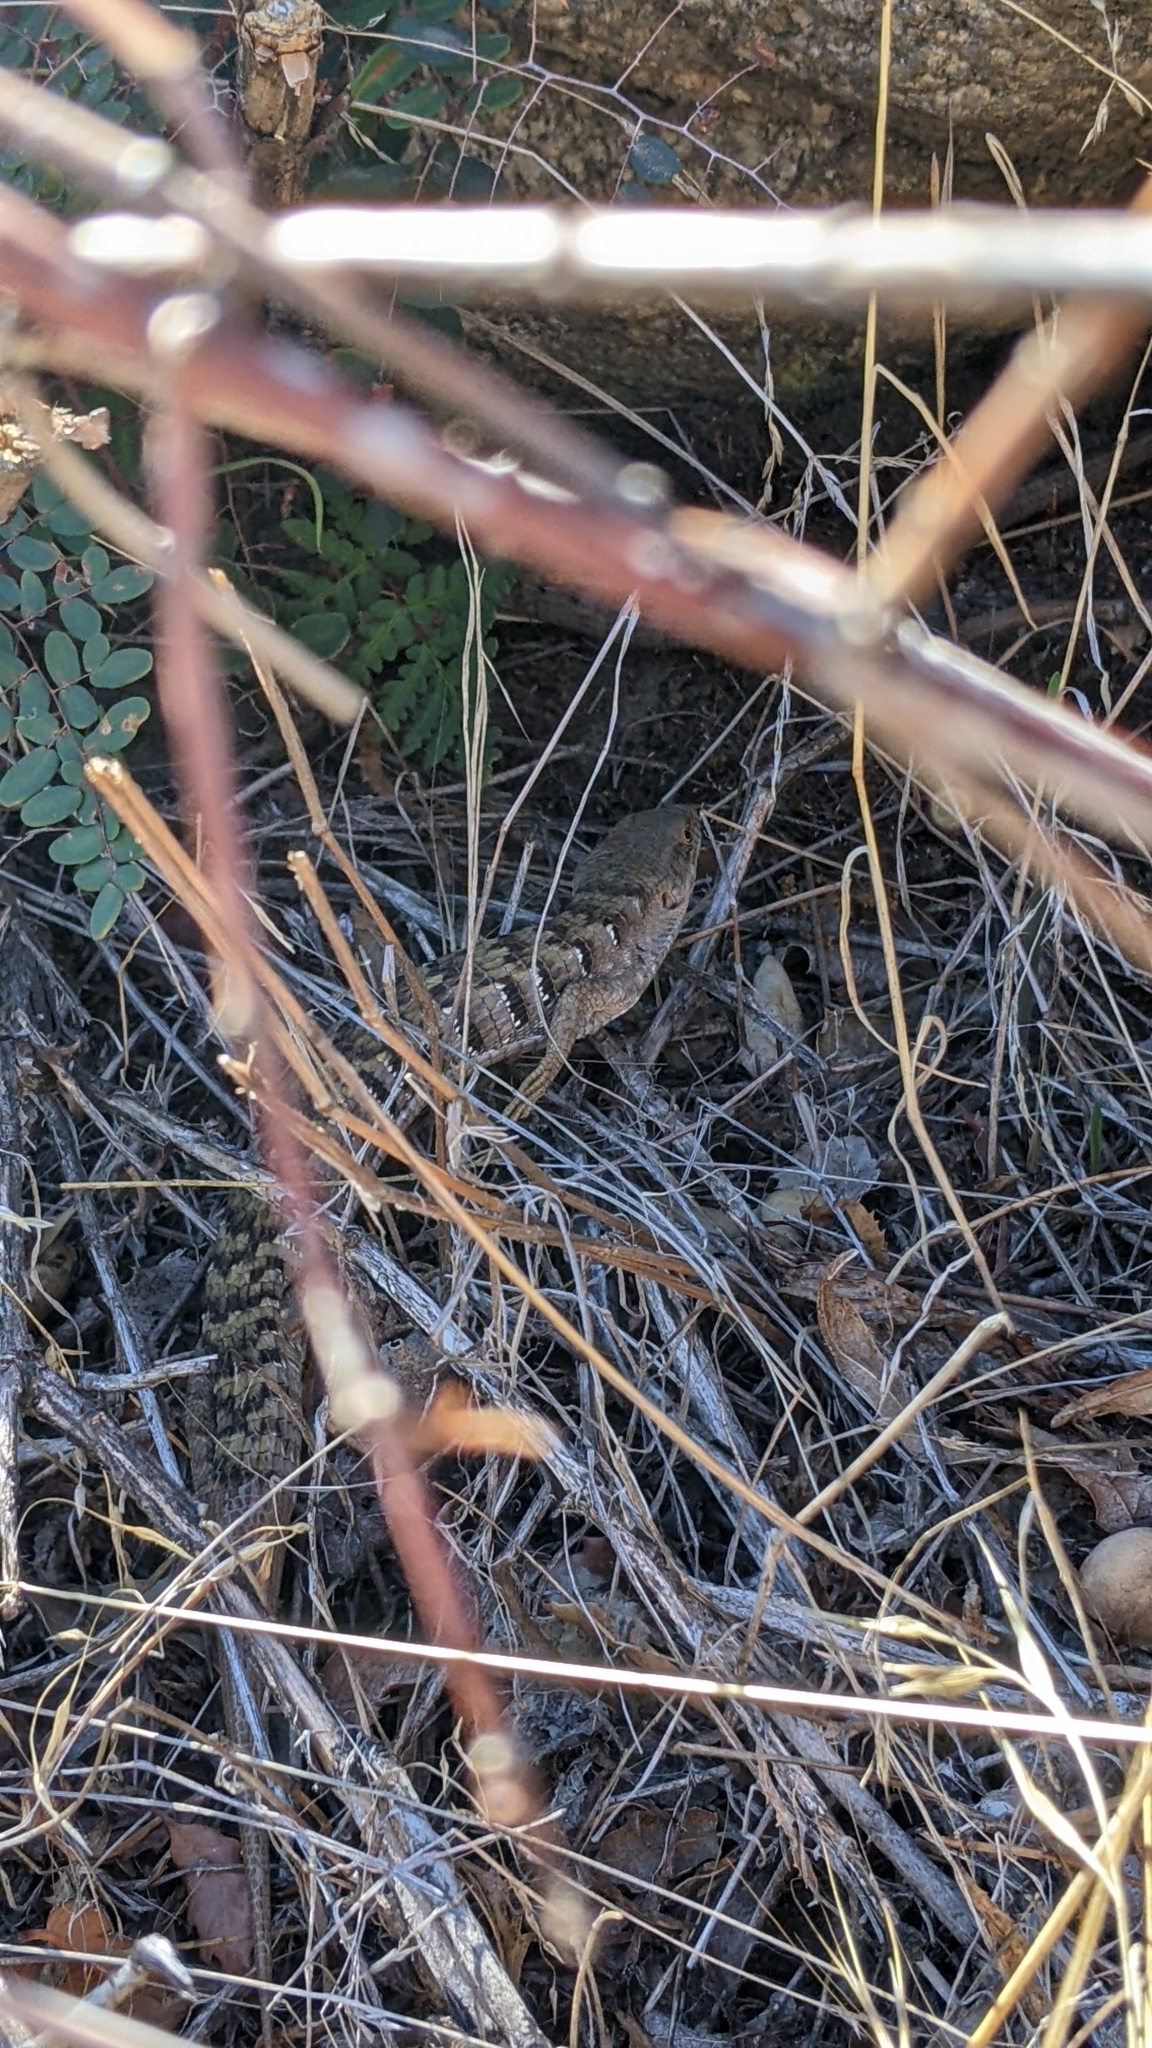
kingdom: Animalia
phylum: Chordata
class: Squamata
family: Anguidae
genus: Elgaria
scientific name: Elgaria multicarinata
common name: Southern alligator lizard
